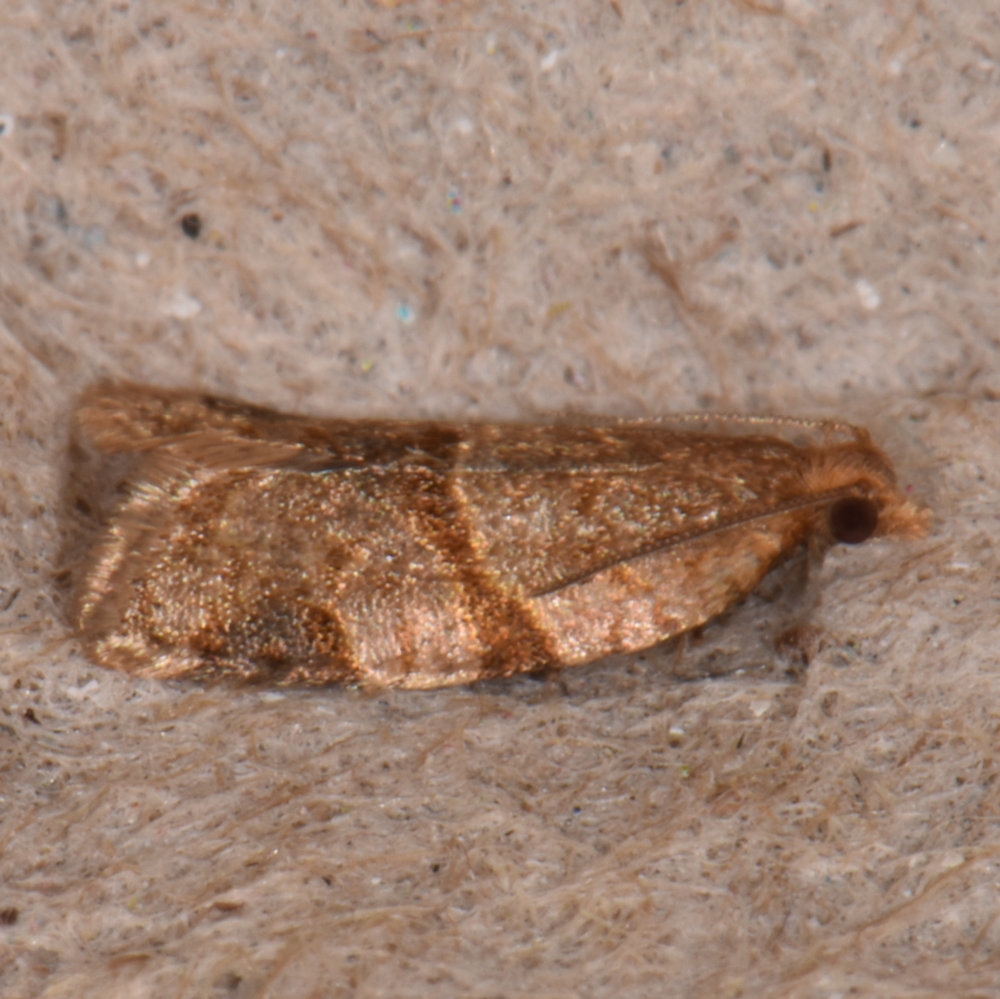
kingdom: Animalia
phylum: Arthropoda
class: Insecta
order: Lepidoptera
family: Tortricidae
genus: Clepsis
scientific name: Clepsis peritana
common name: Garden tortrix
